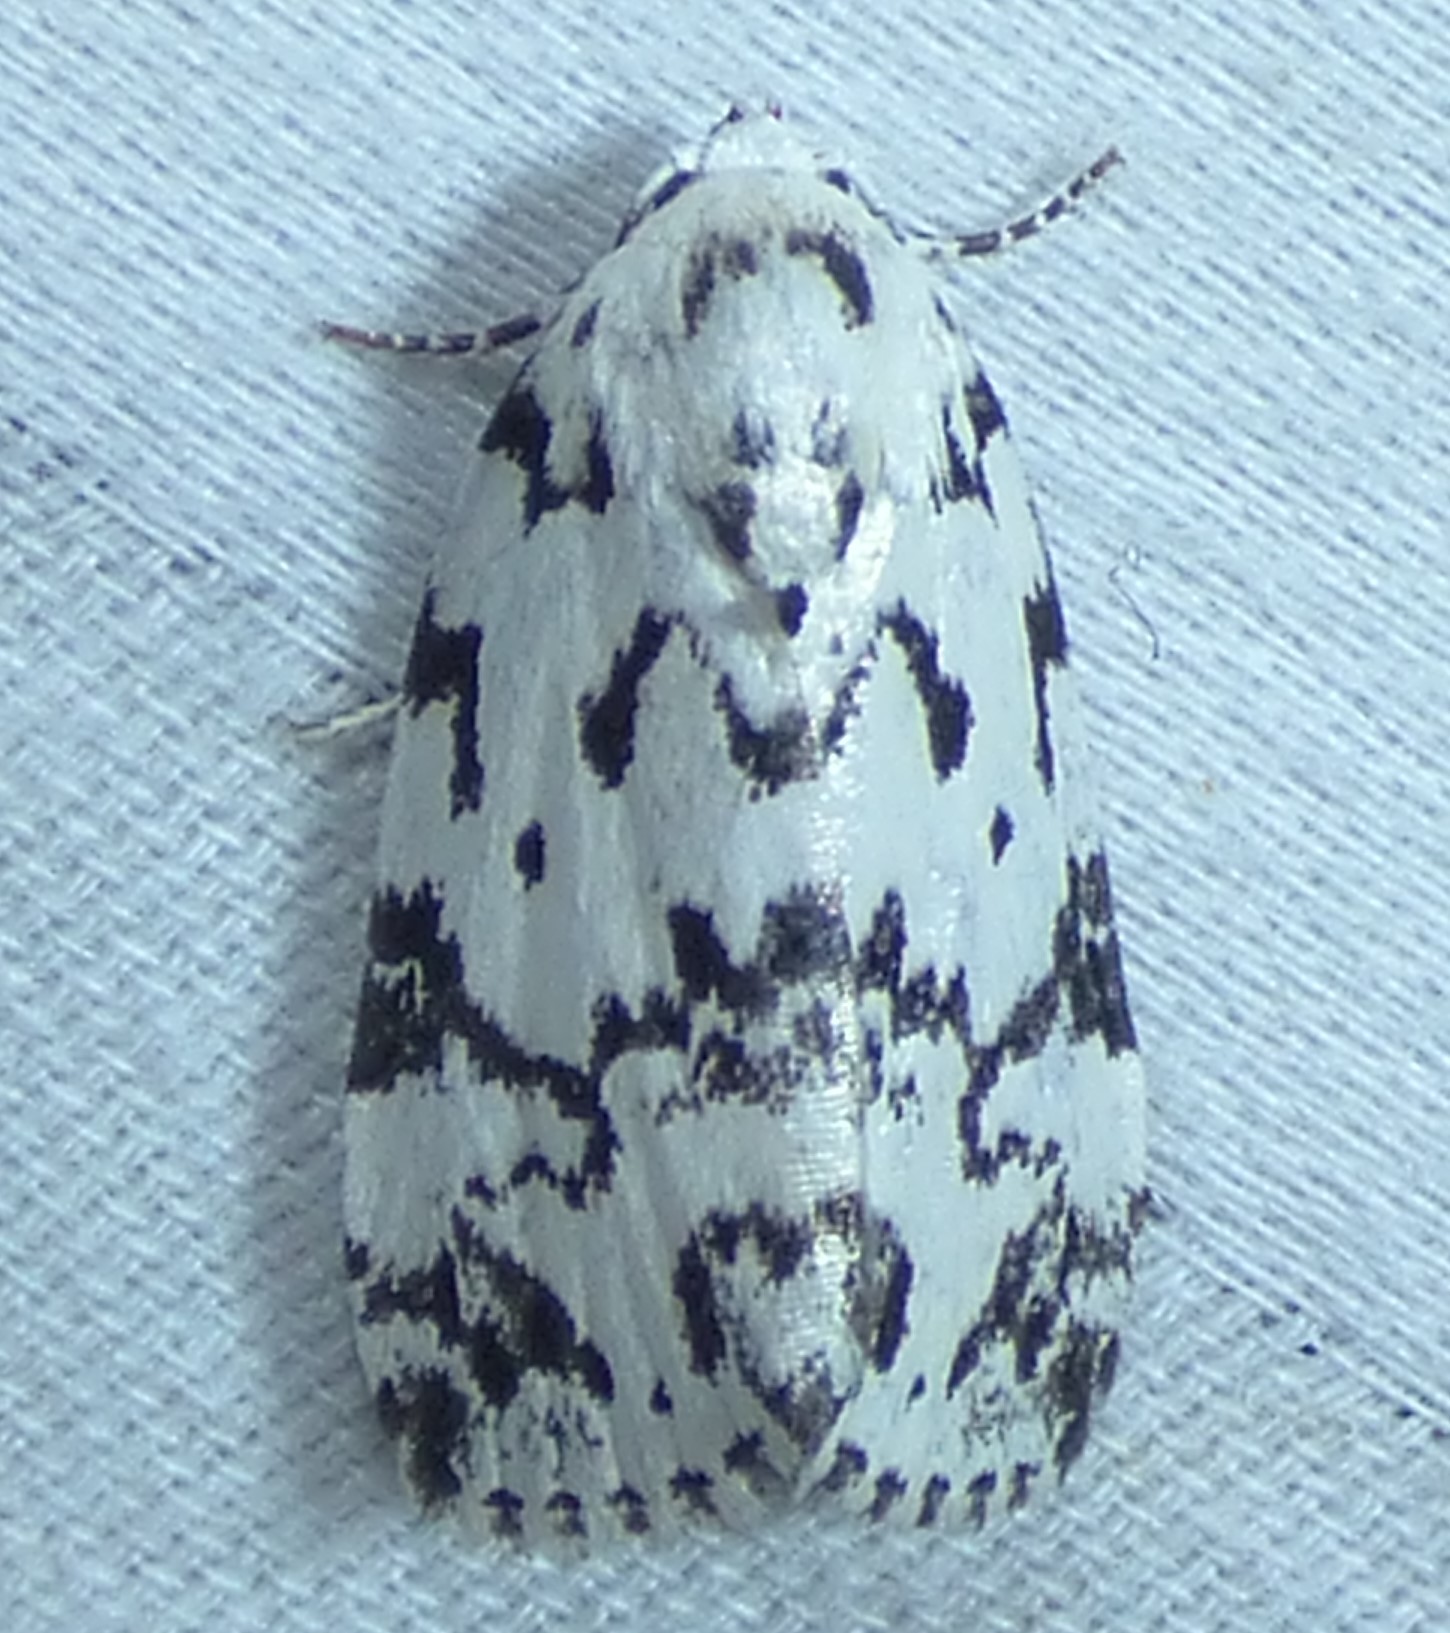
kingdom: Animalia
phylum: Arthropoda
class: Insecta
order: Lepidoptera
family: Noctuidae
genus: Polygrammate
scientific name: Polygrammate hebraeicum
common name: Hebrew moth
